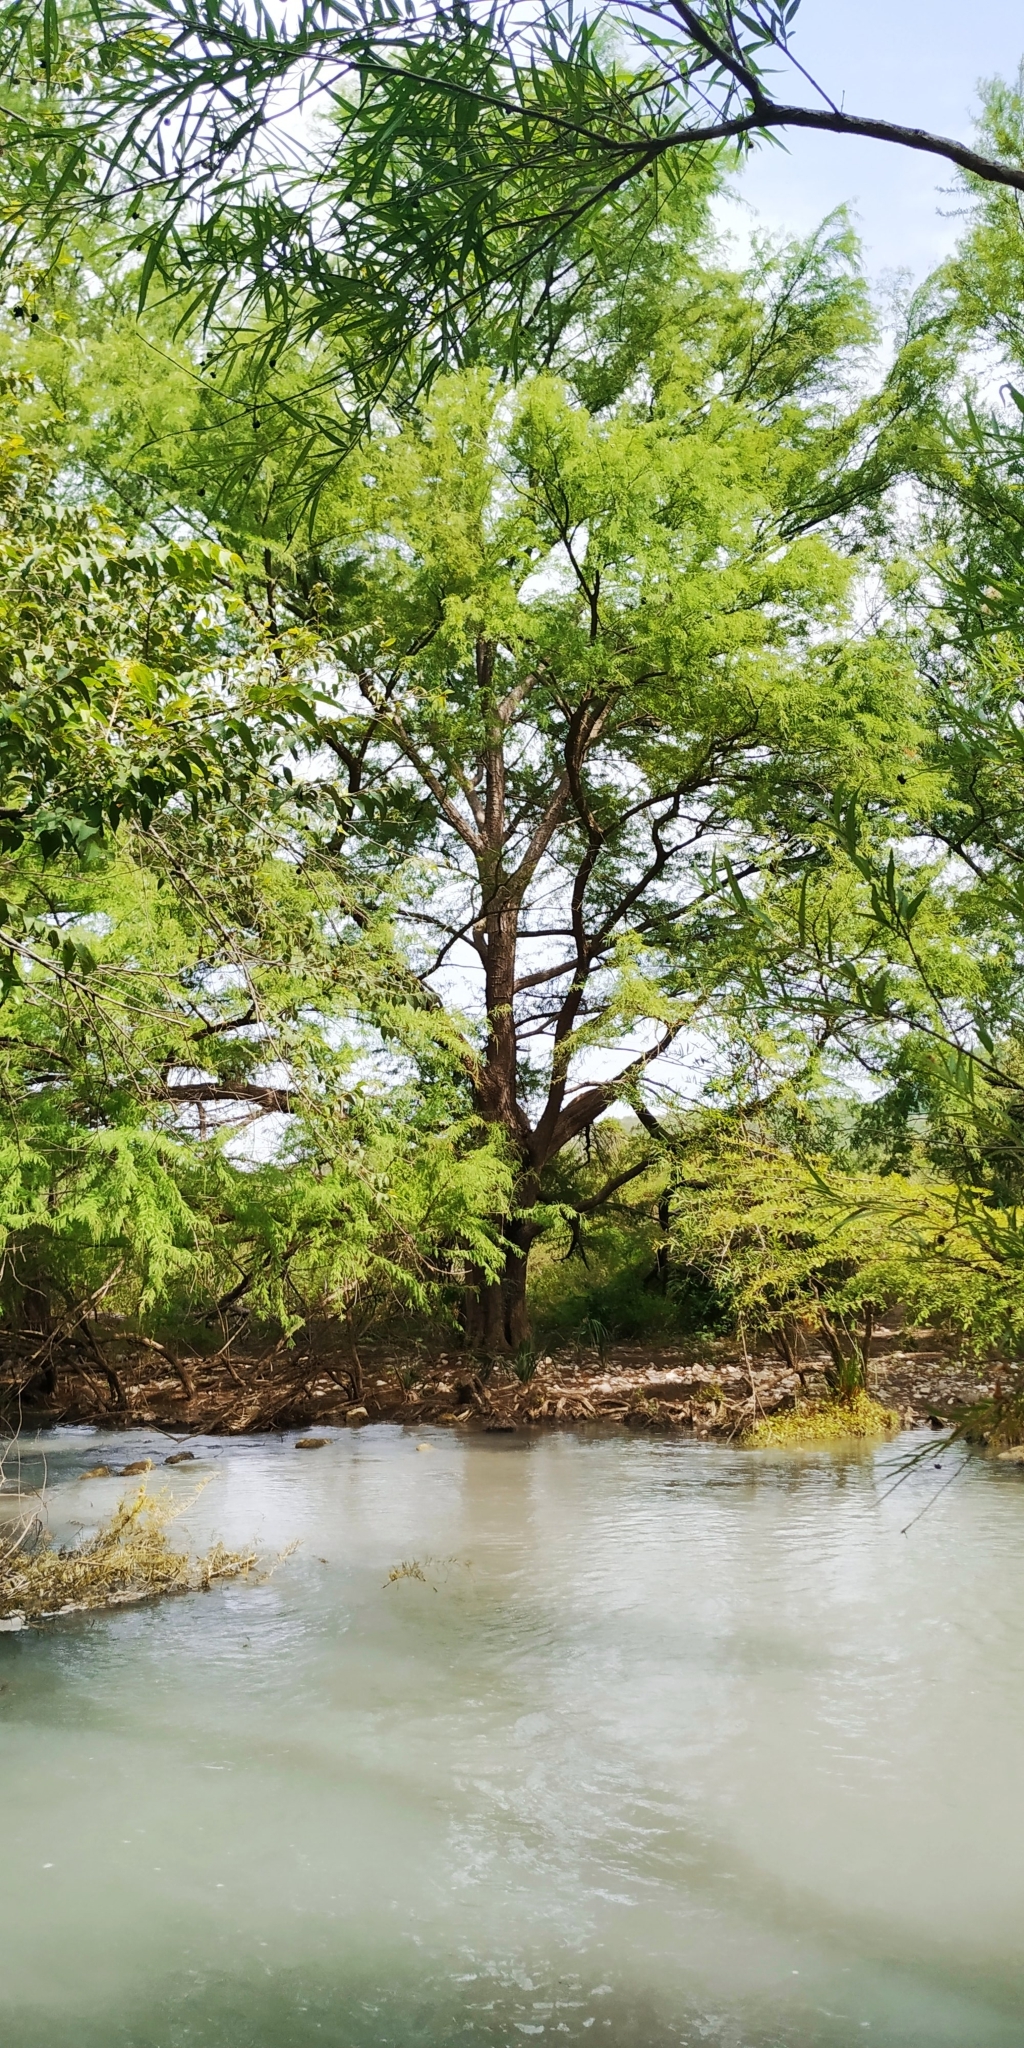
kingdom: Plantae
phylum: Tracheophyta
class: Pinopsida
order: Pinales
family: Cupressaceae
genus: Taxodium
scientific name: Taxodium mucronatum
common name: Montezume bald cypress
